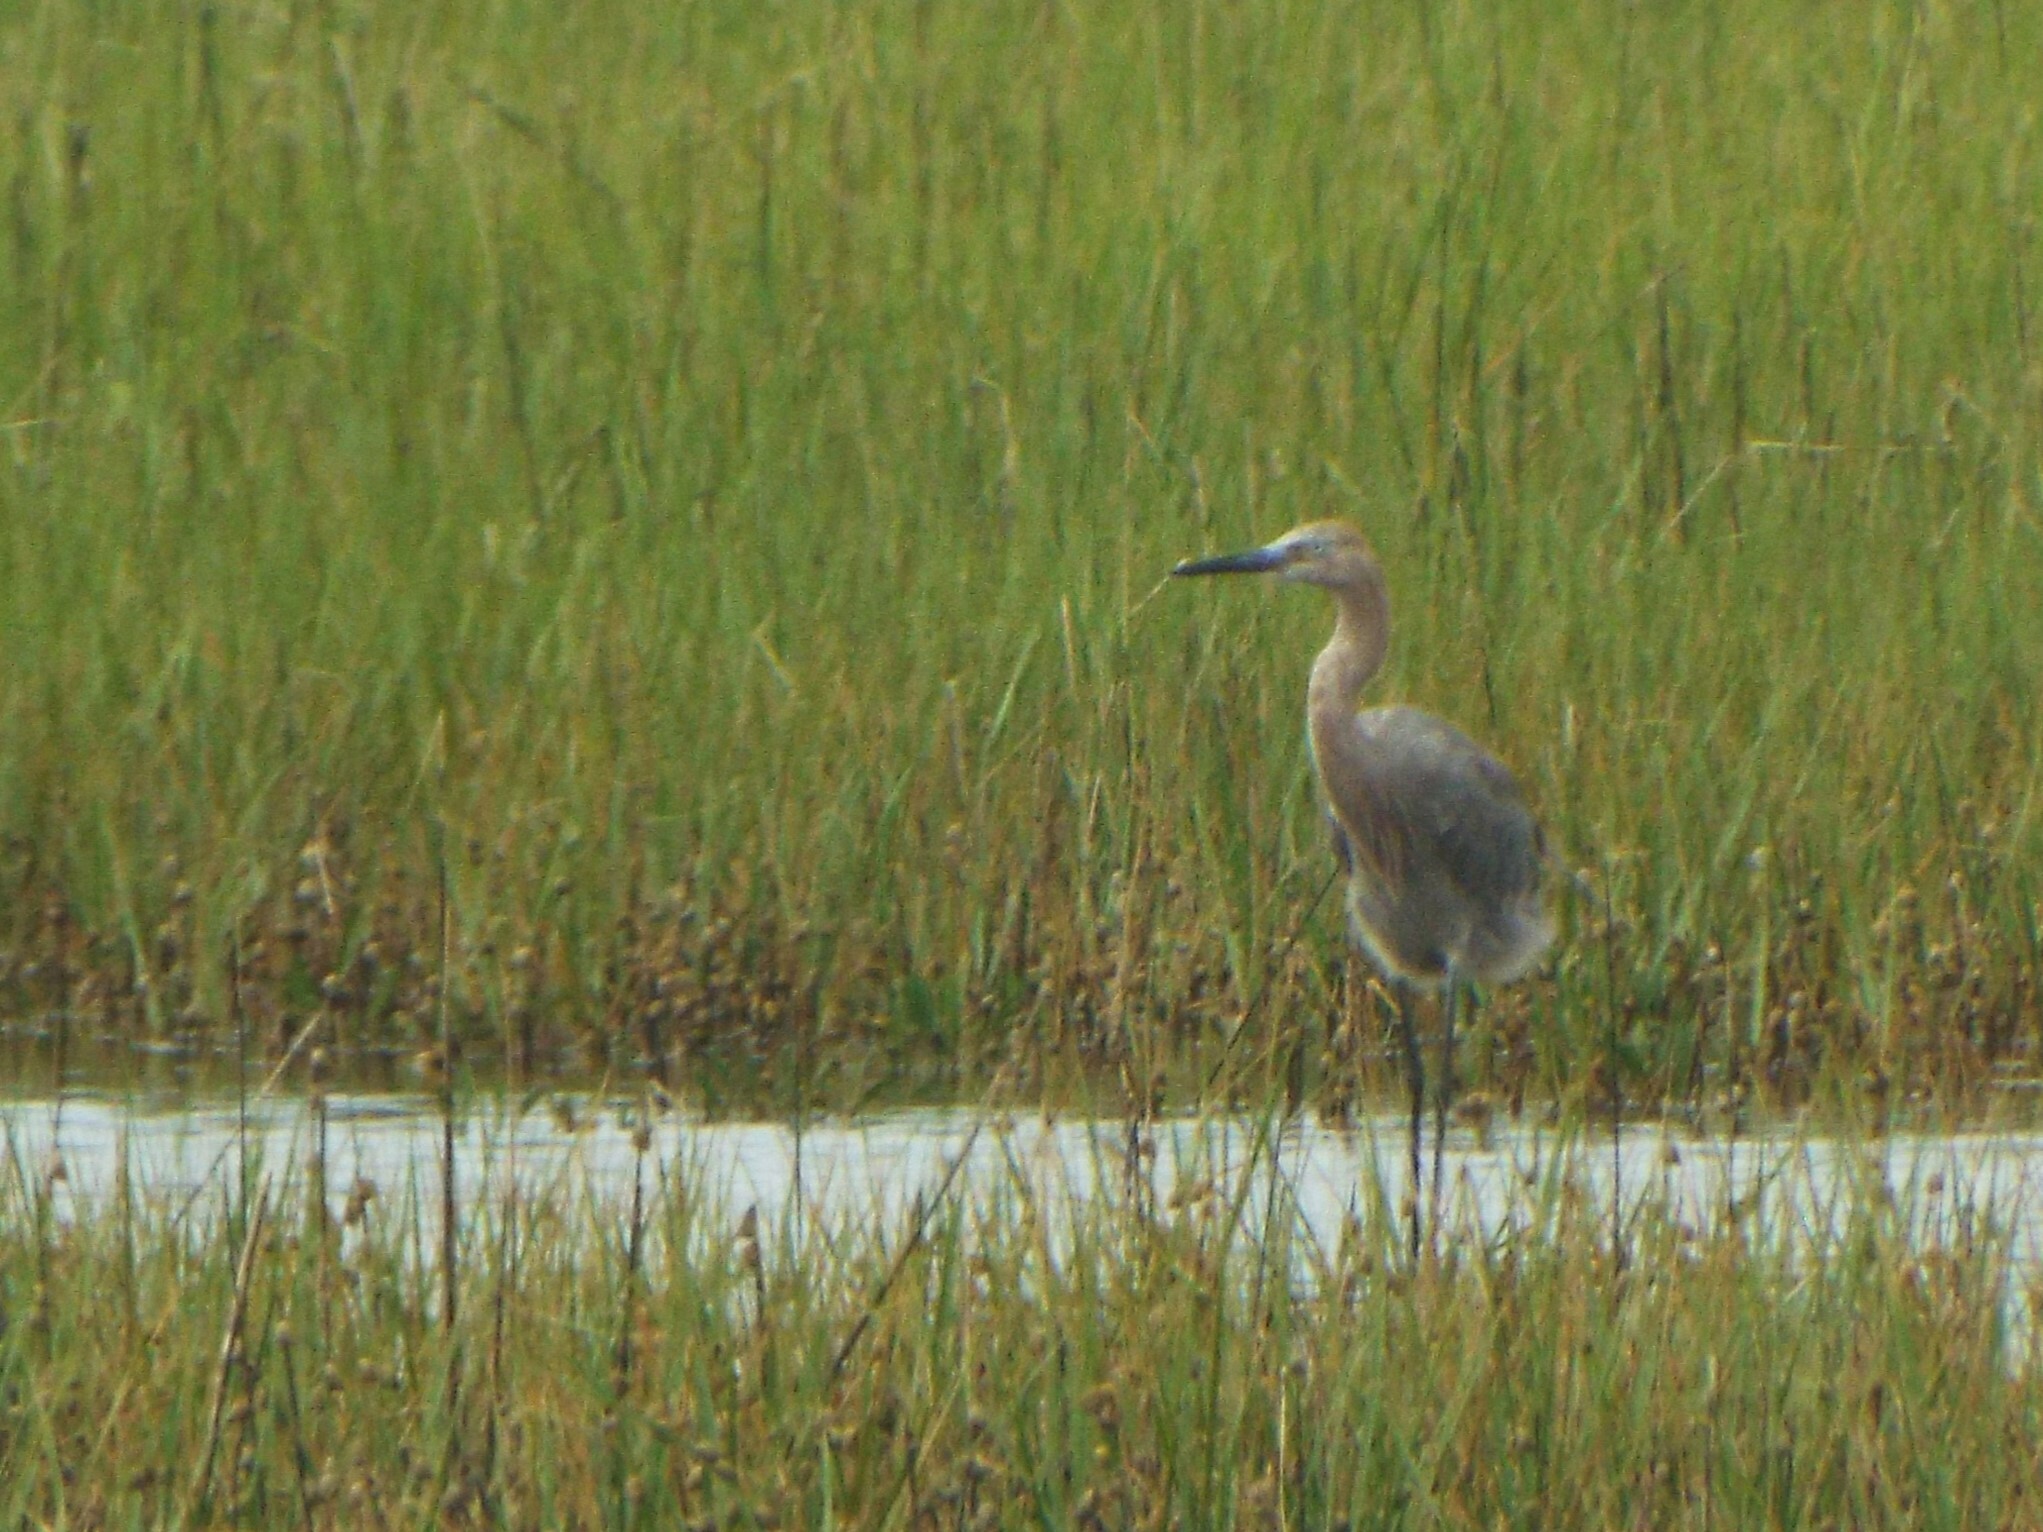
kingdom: Animalia
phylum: Chordata
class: Aves
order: Pelecaniformes
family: Ardeidae
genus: Egretta
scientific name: Egretta rufescens
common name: Reddish egret
